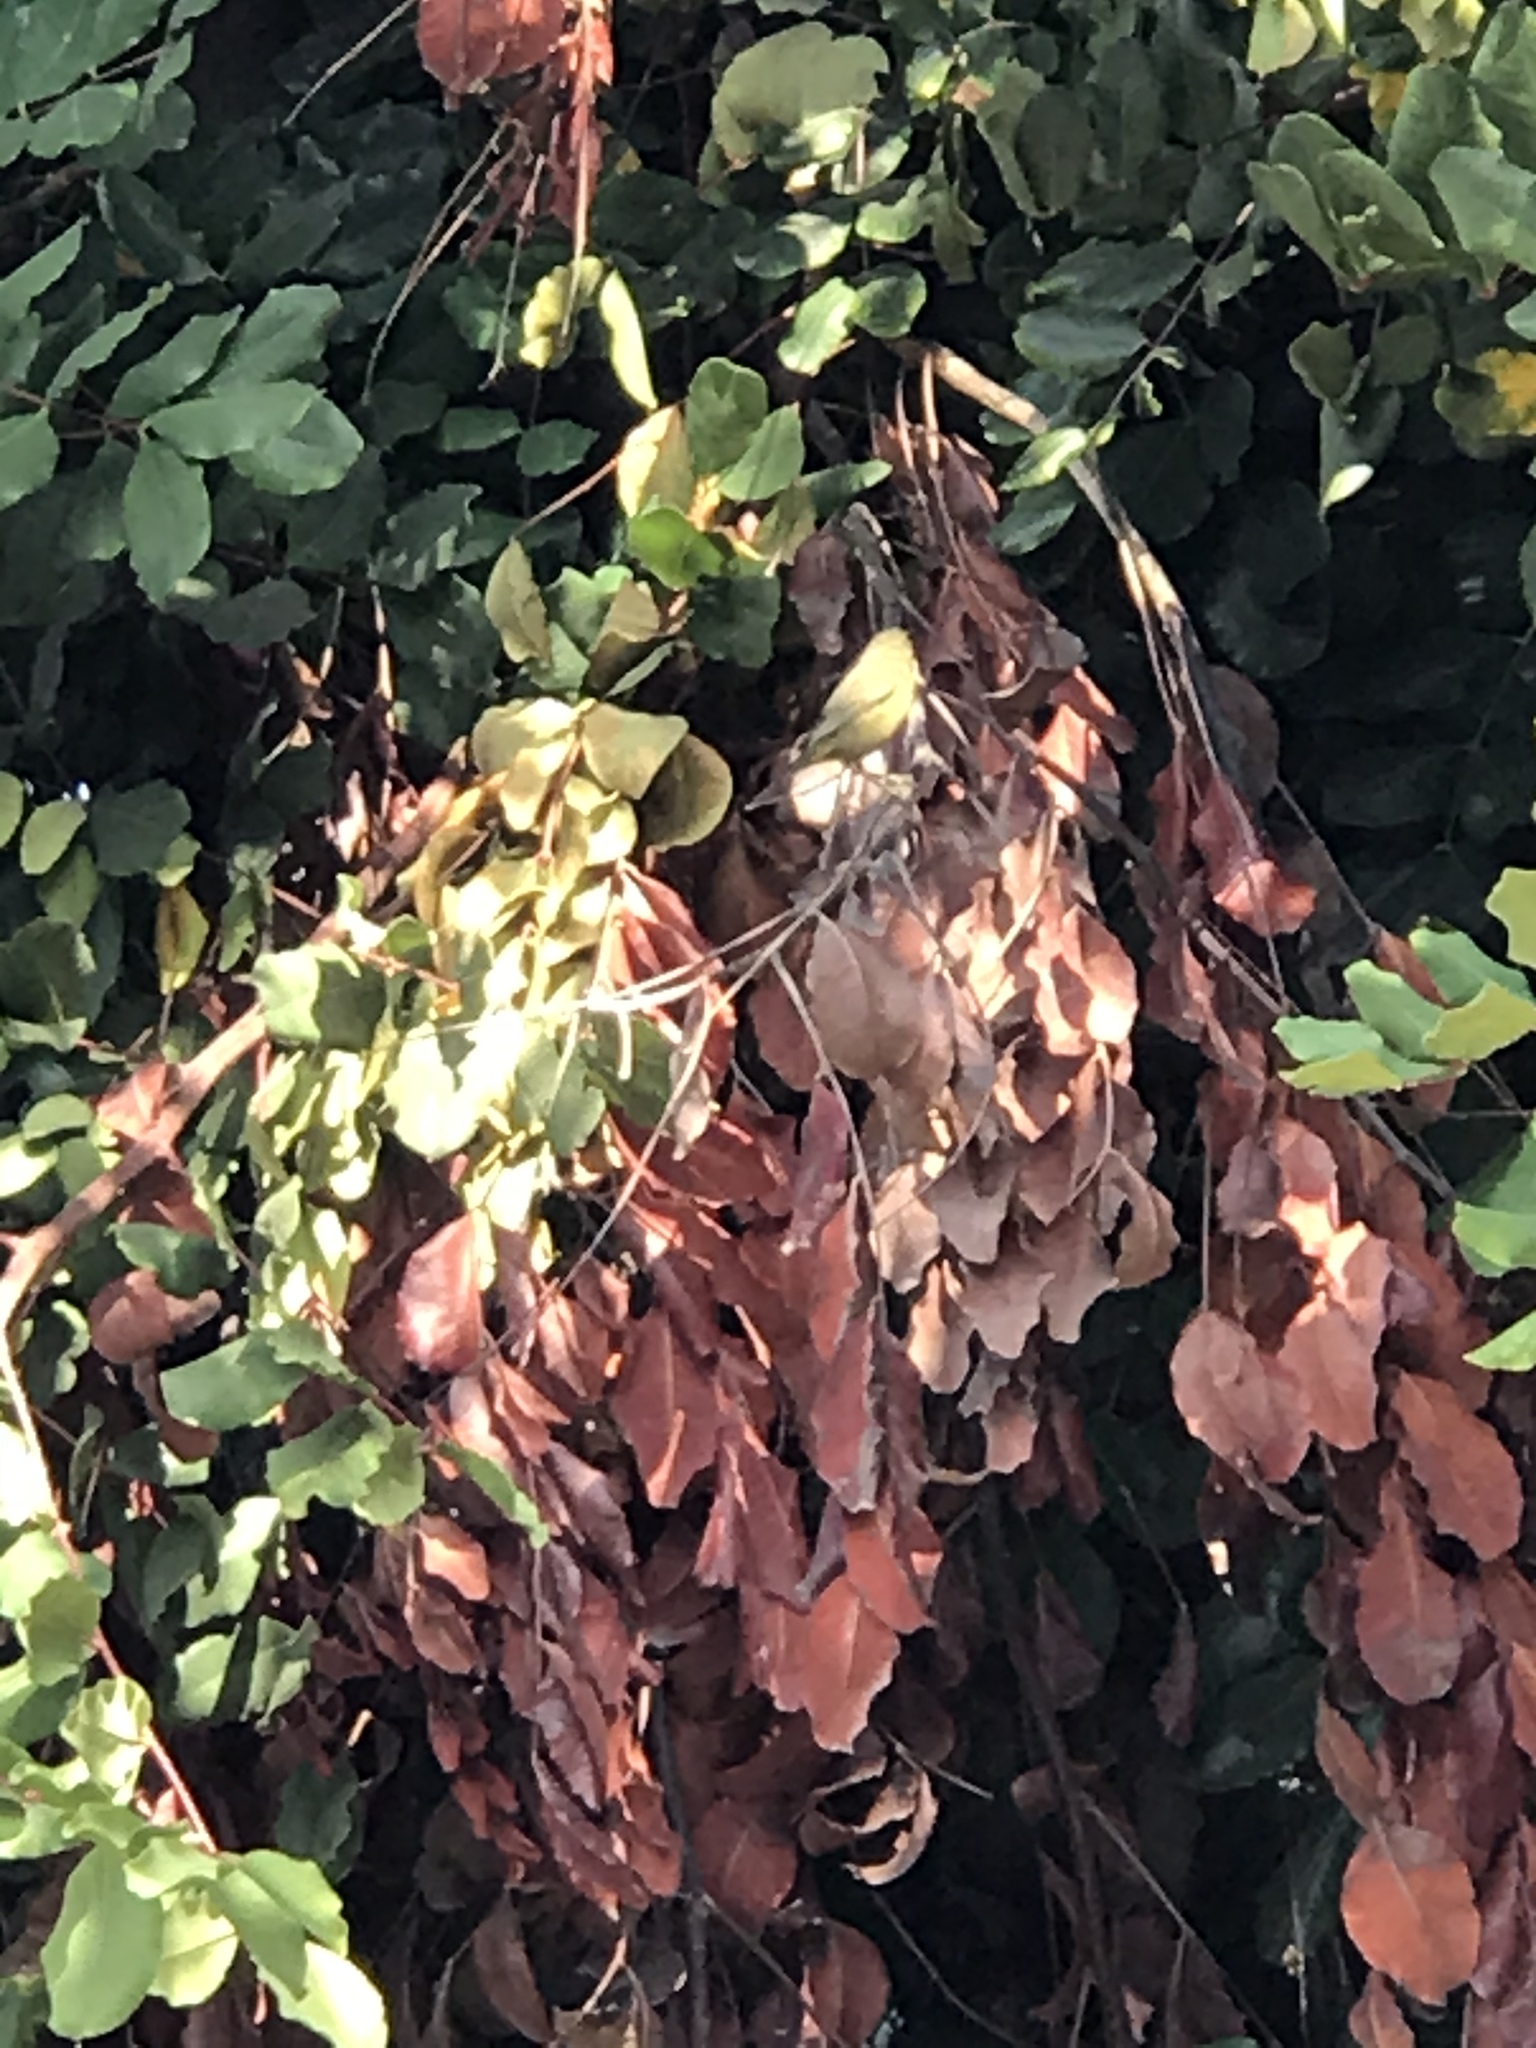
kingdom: Animalia
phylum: Chordata
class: Aves
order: Passeriformes
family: Parulidae
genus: Leiothlypis
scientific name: Leiothlypis celata
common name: Orange-crowned warbler
